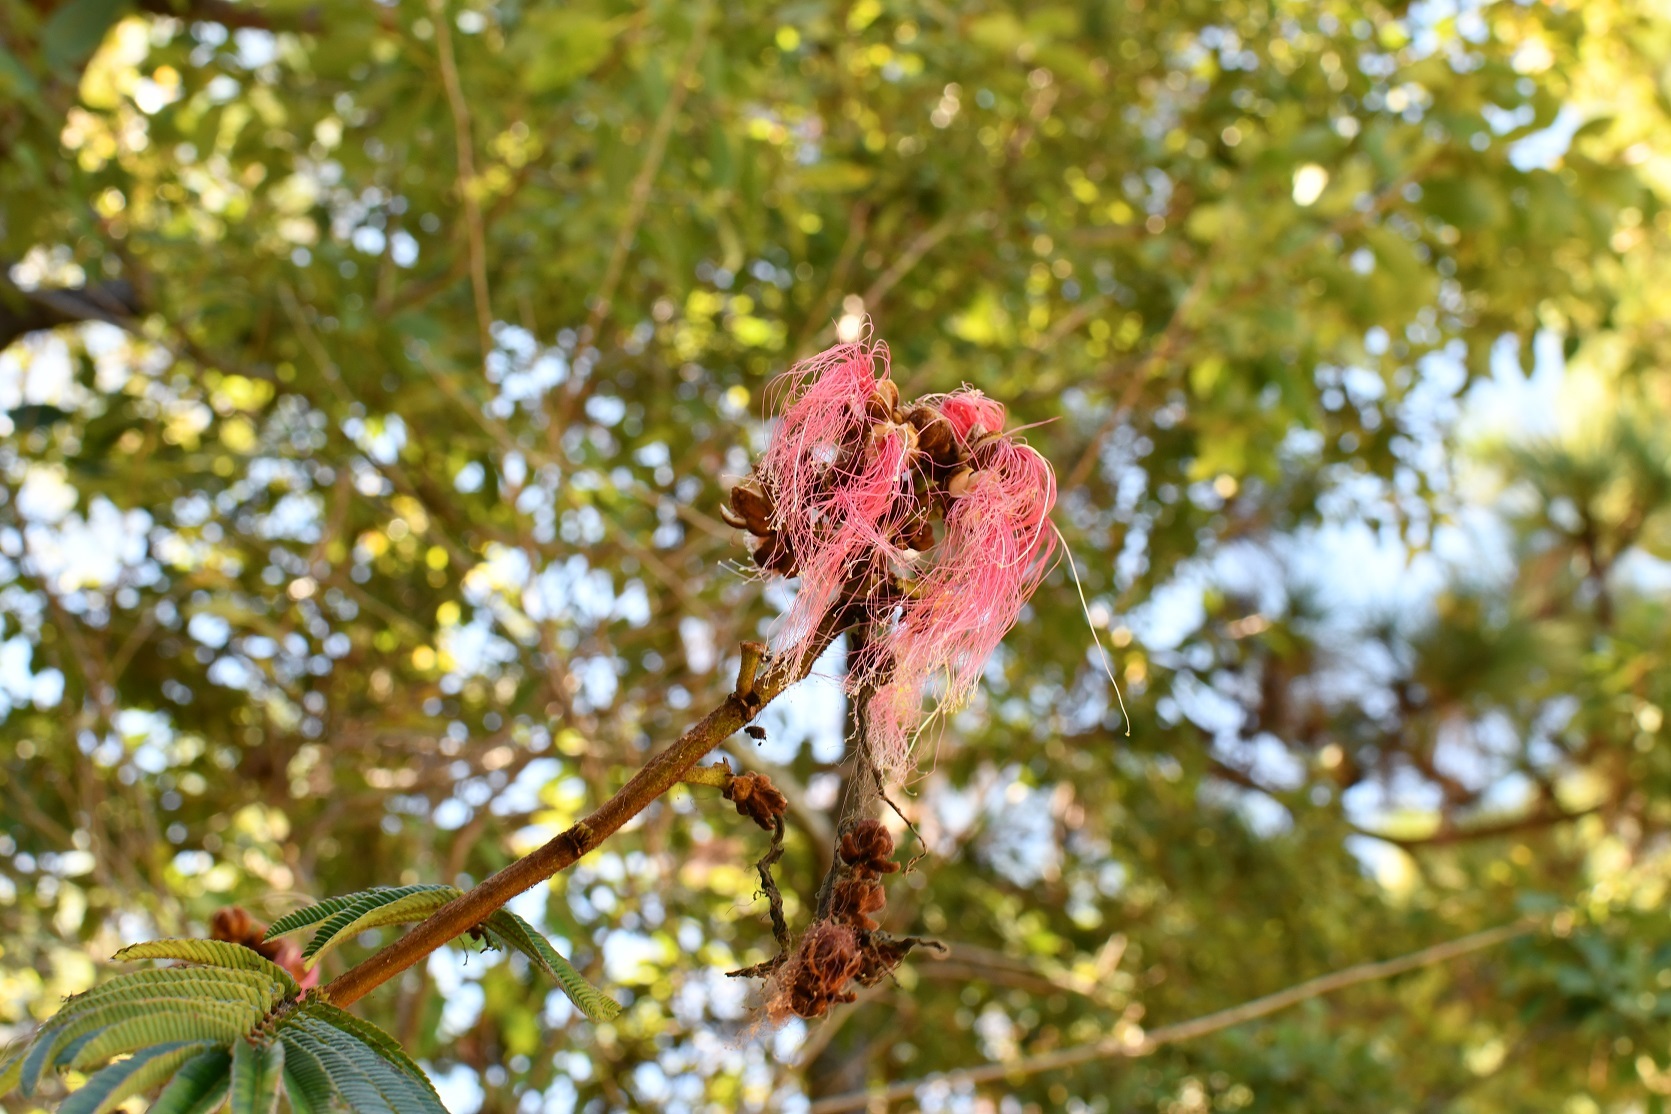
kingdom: Plantae
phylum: Tracheophyta
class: Magnoliopsida
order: Fabales
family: Fabaceae
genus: Calliandra
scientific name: Calliandra houstoniana
